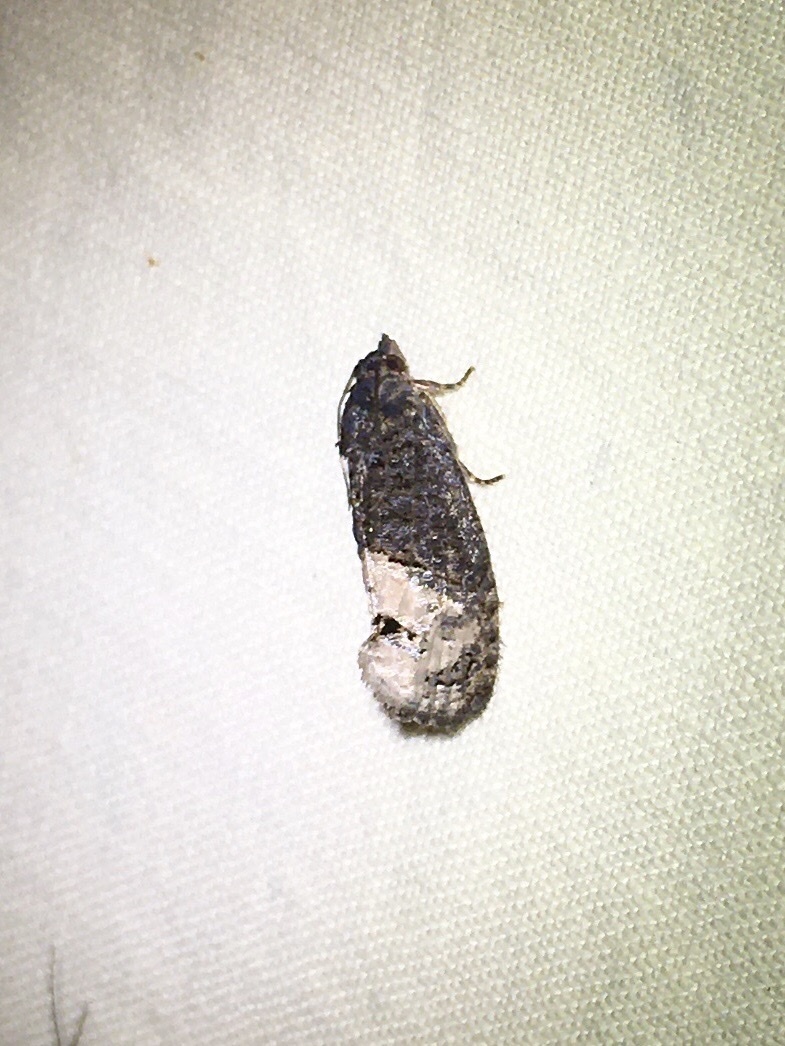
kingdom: Animalia
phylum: Arthropoda
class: Insecta
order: Lepidoptera
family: Tortricidae
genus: Ecdytolopha
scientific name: Ecdytolopha insiticiana
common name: Locust twig borer moth
